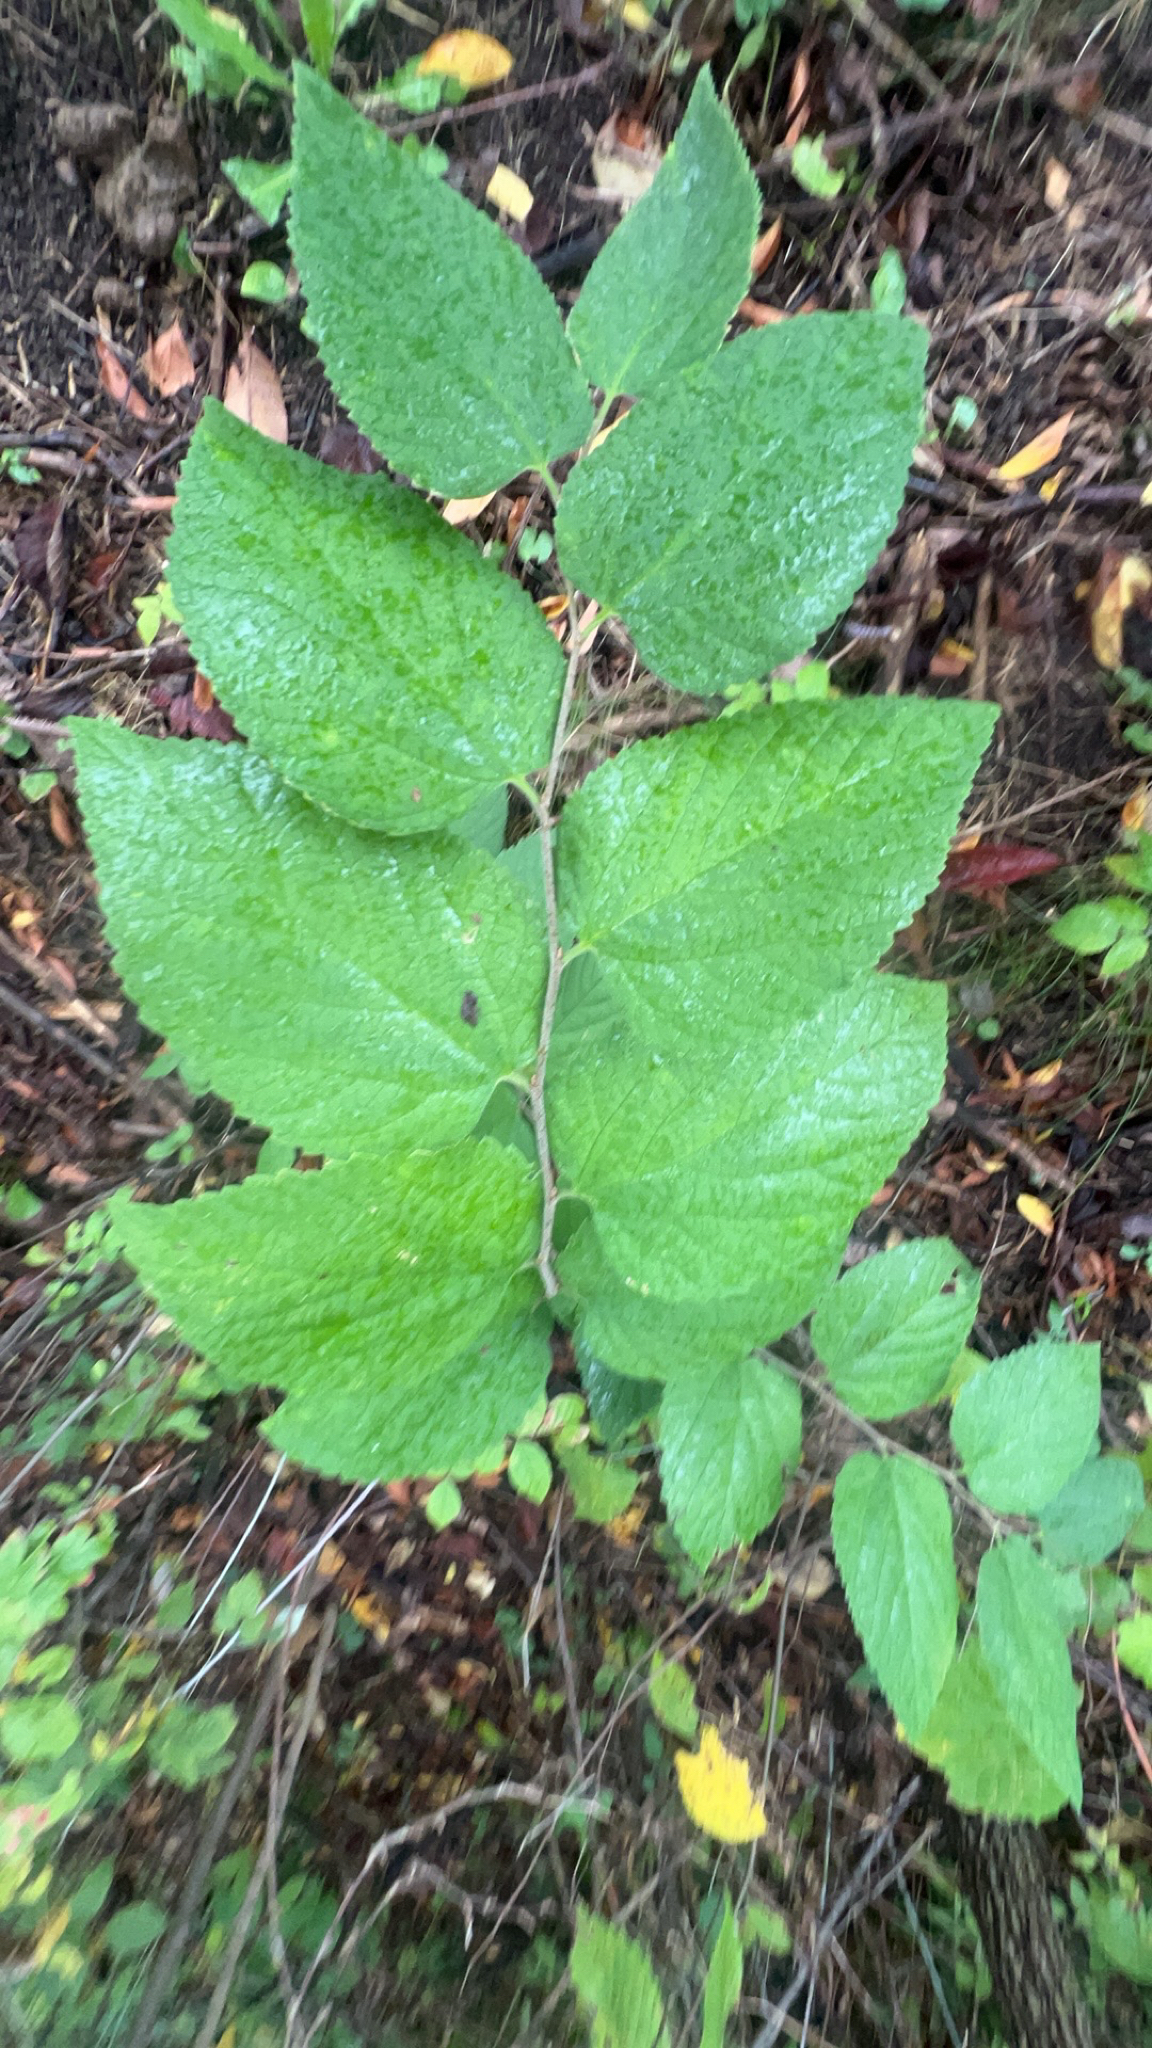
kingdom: Plantae
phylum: Tracheophyta
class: Magnoliopsida
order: Rosales
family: Cannabaceae
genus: Celtis
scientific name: Celtis occidentalis
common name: Common hackberry
